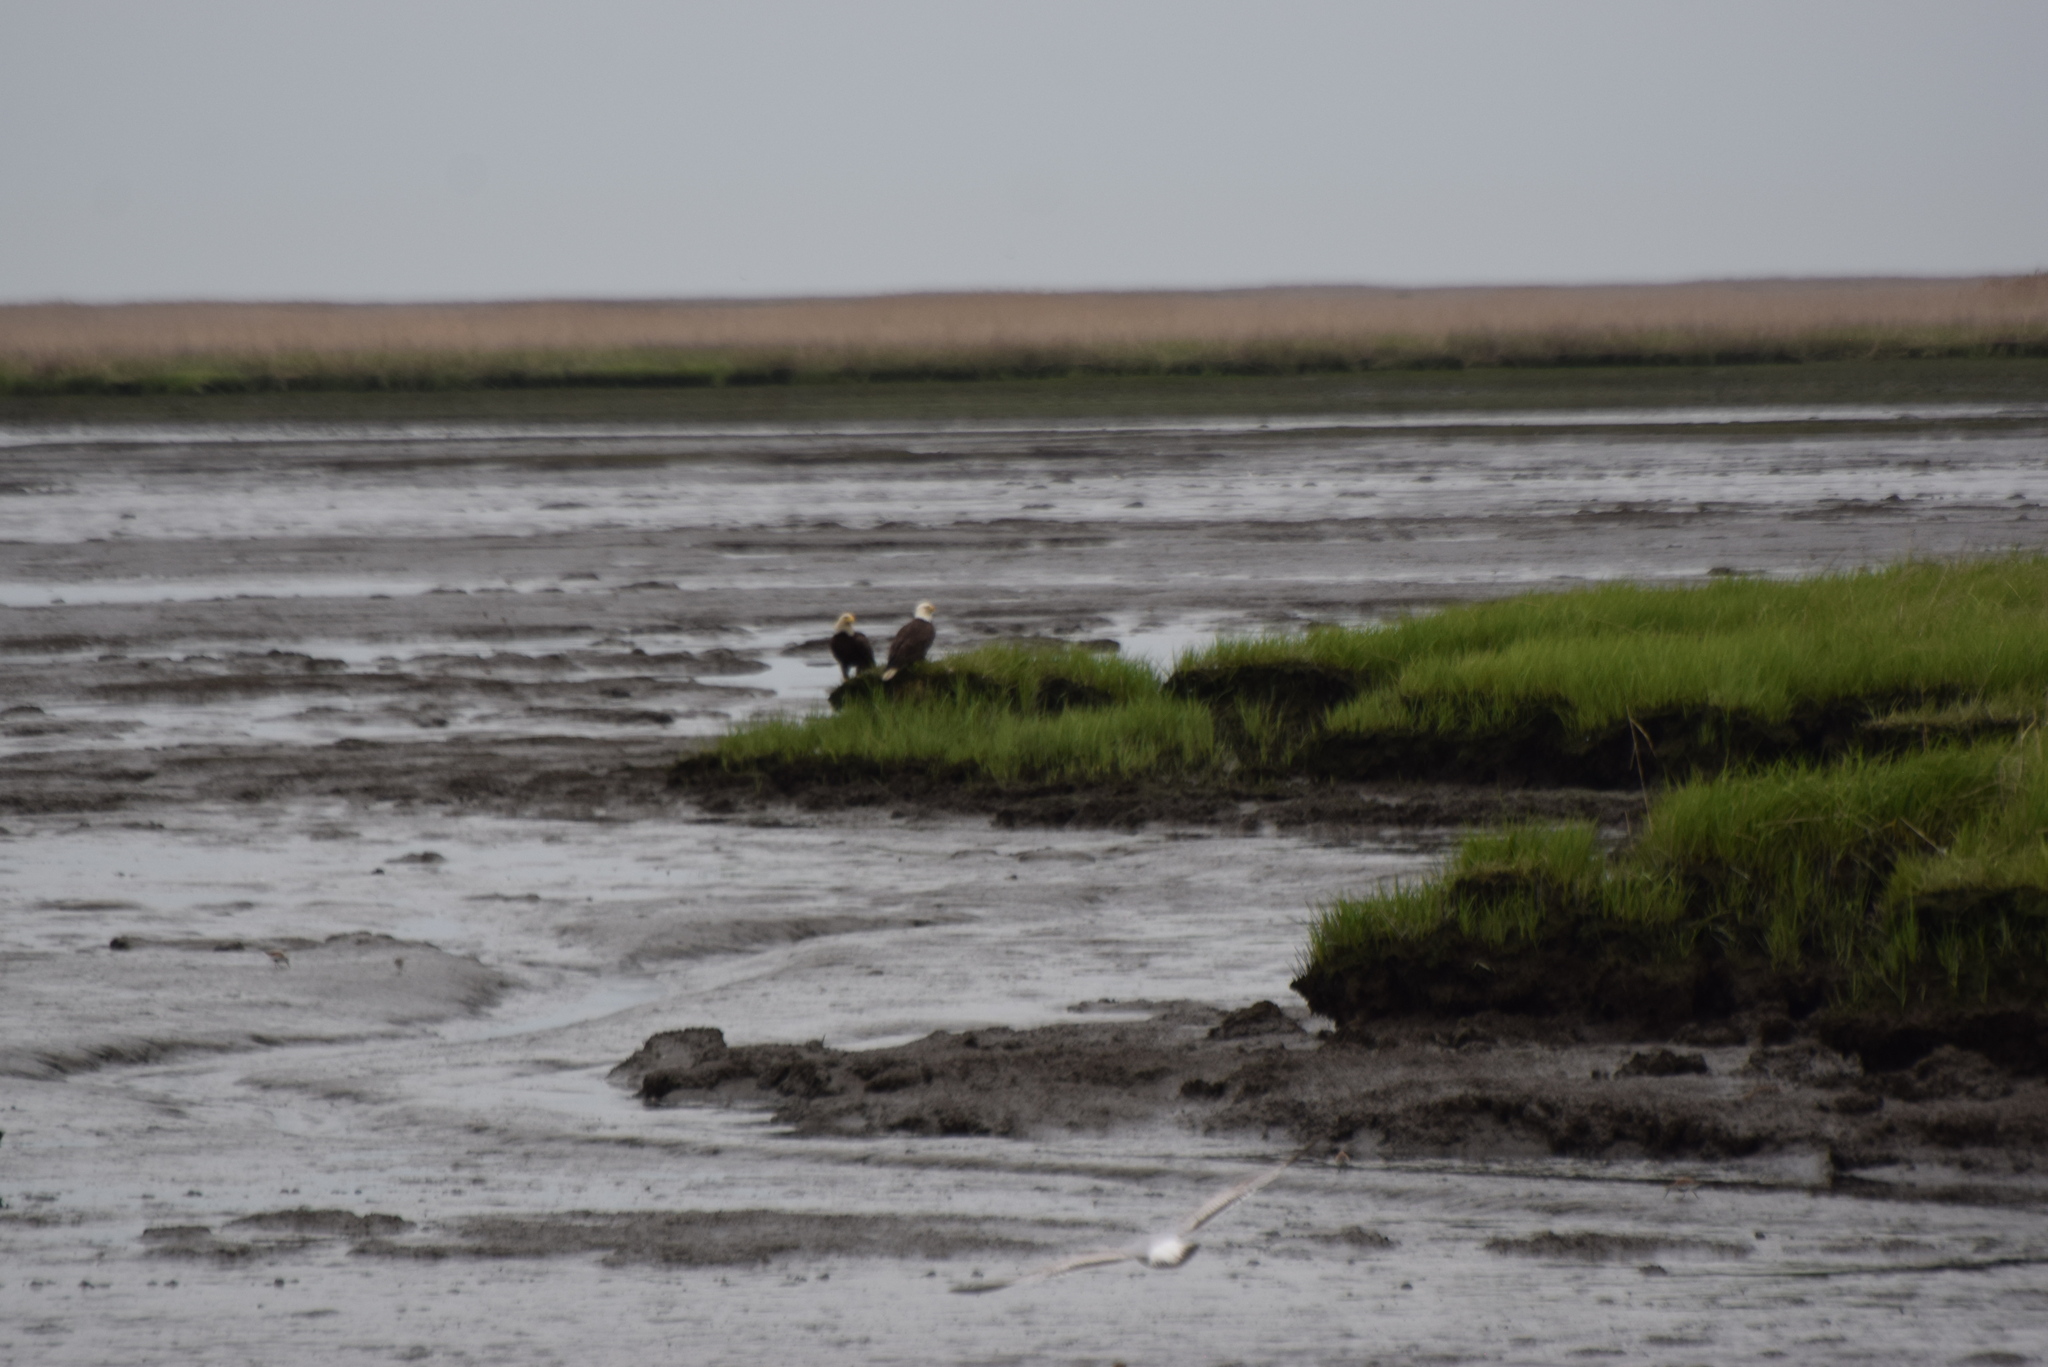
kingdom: Animalia
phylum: Chordata
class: Aves
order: Accipitriformes
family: Accipitridae
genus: Haliaeetus
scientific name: Haliaeetus leucocephalus
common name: Bald eagle
